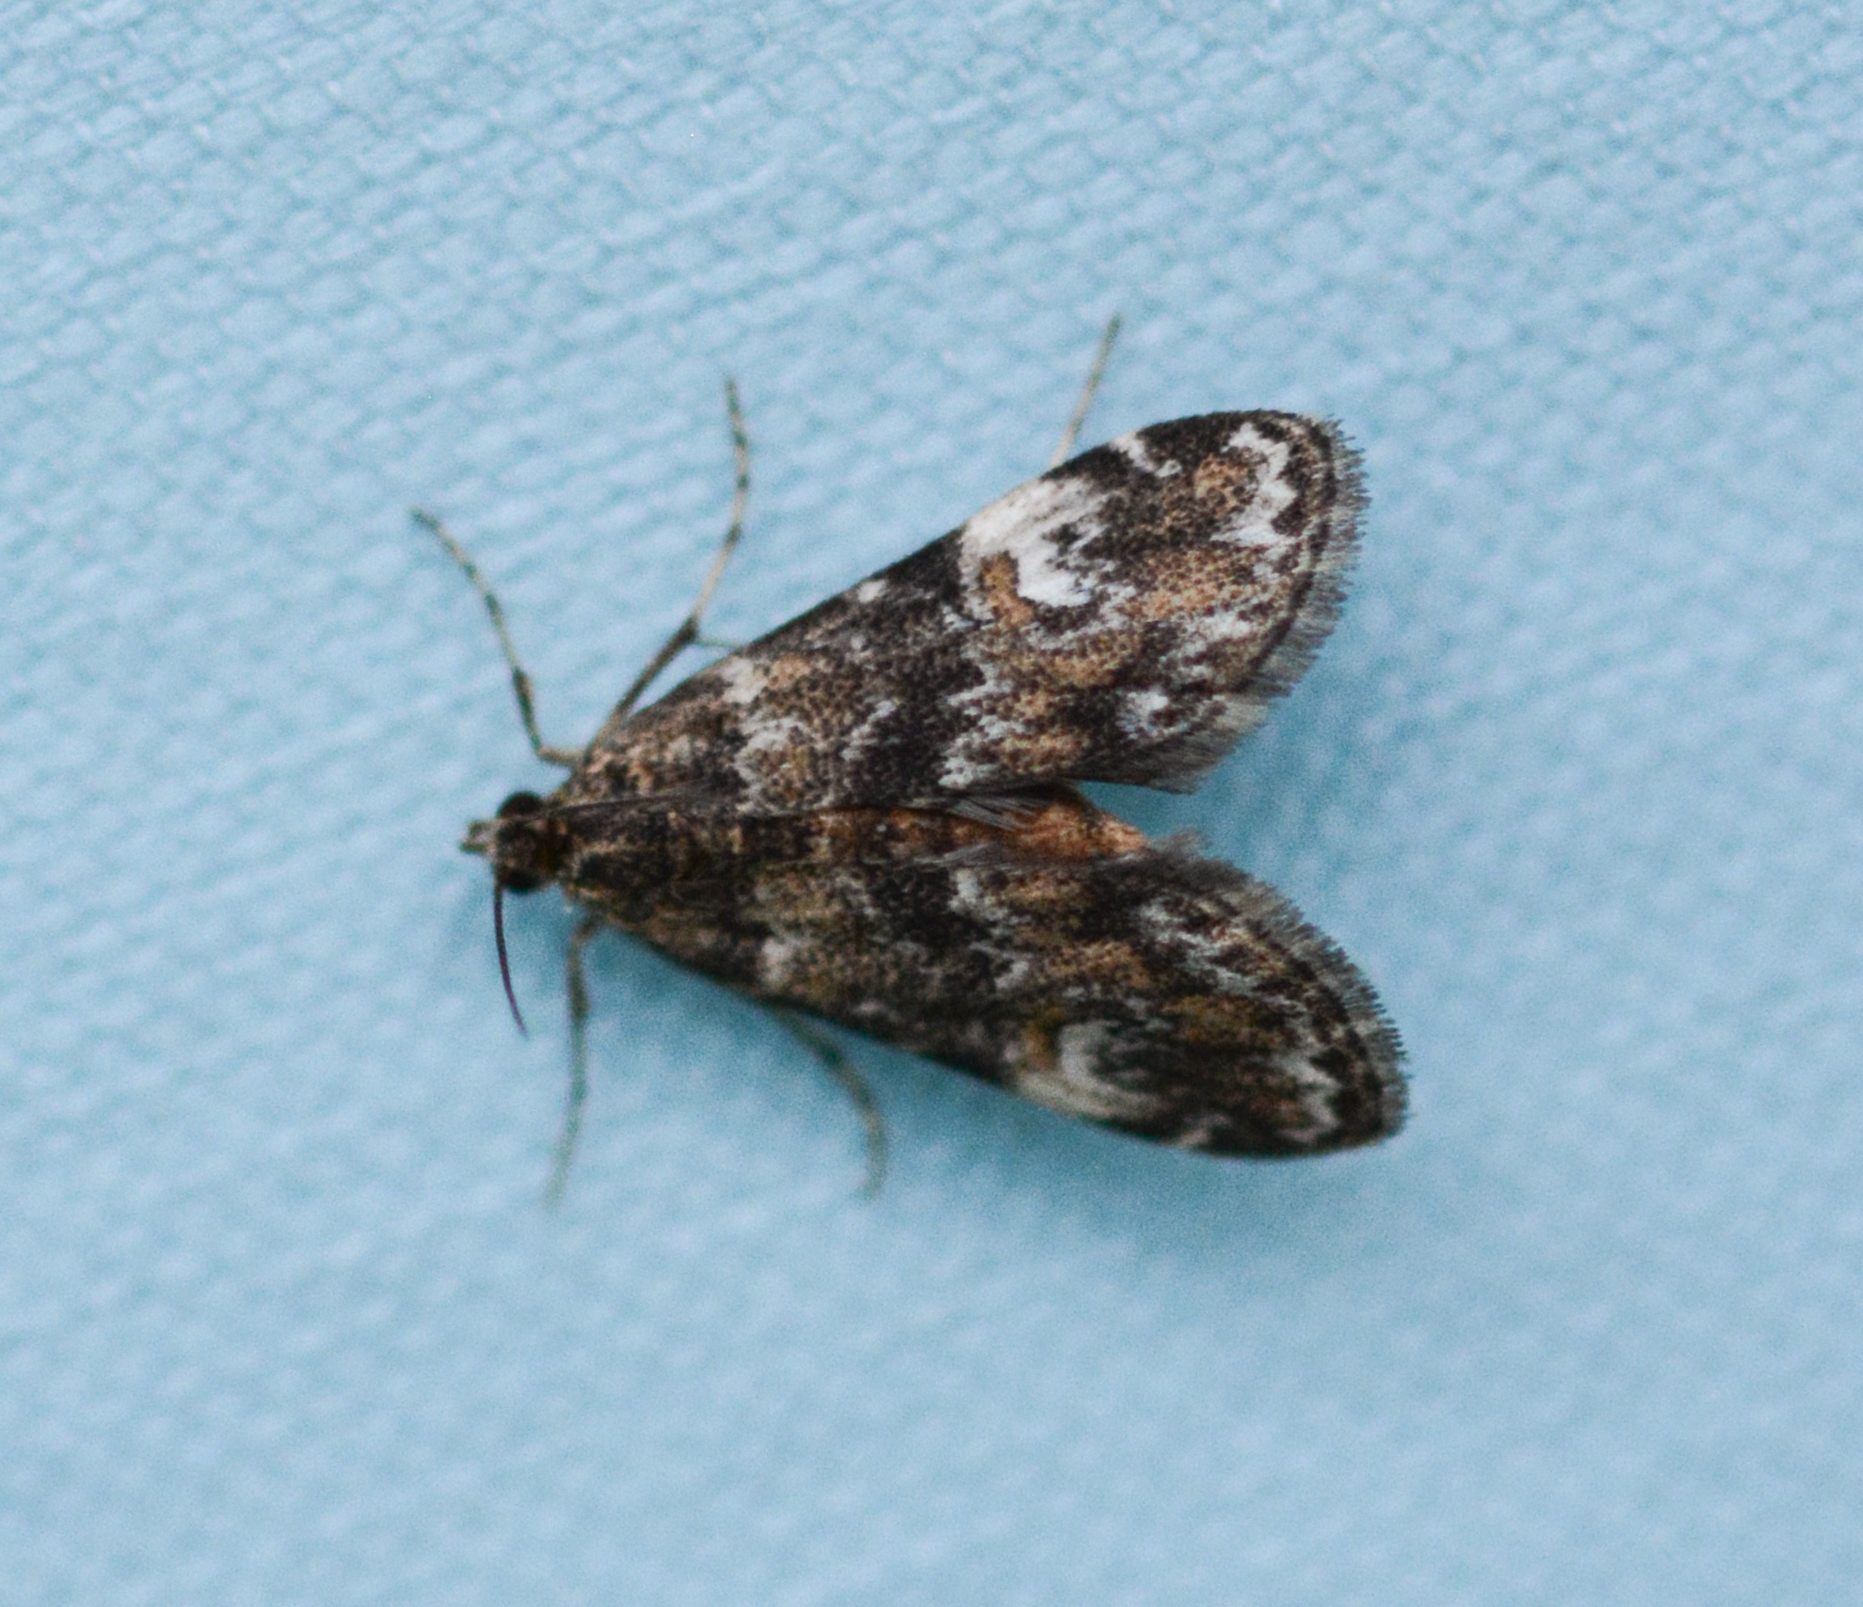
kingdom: Animalia
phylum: Arthropoda
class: Insecta
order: Lepidoptera
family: Crambidae
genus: Elophila
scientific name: Elophila obliteralis
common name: Waterlily leafcutter moth
